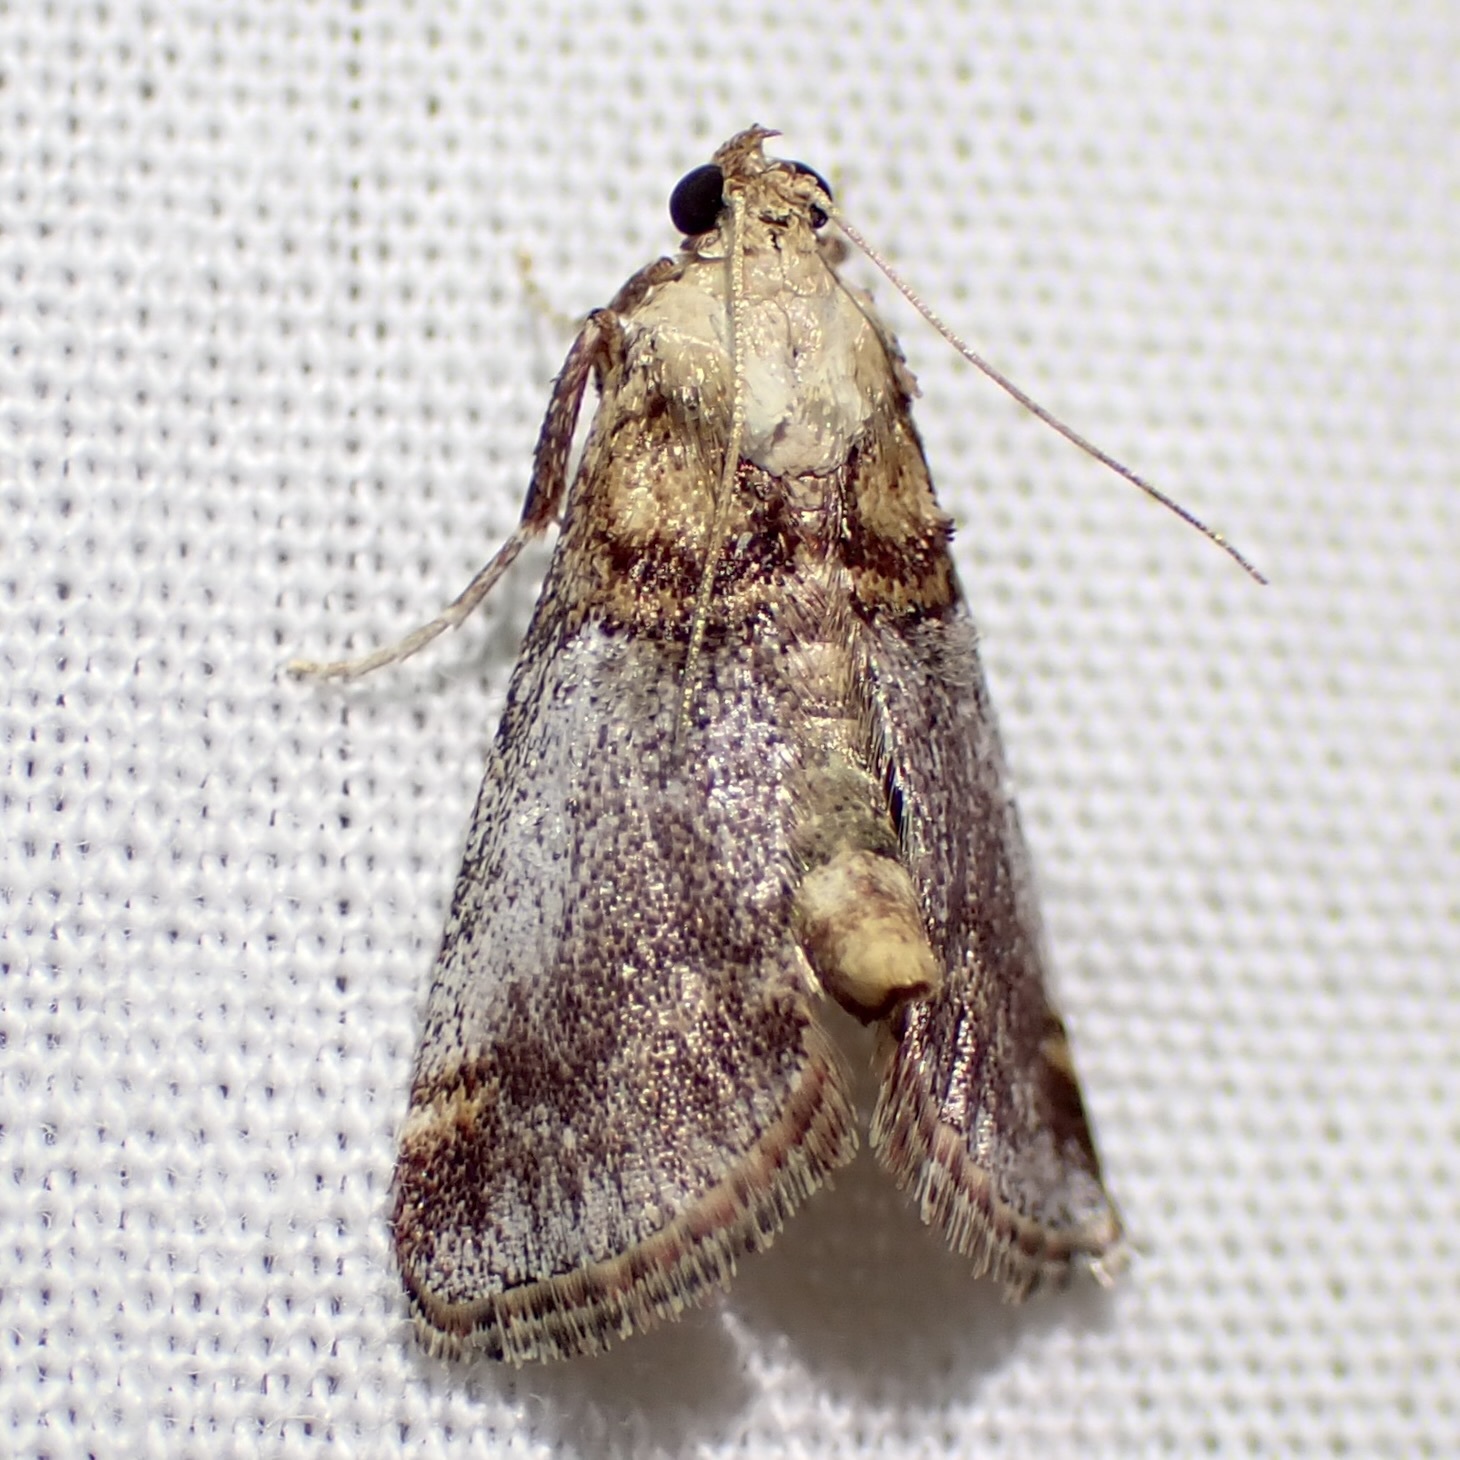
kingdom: Animalia
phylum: Arthropoda
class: Insecta
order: Lepidoptera
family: Pyralidae
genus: Cacozelia
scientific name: Cacozelia basiochrealis
